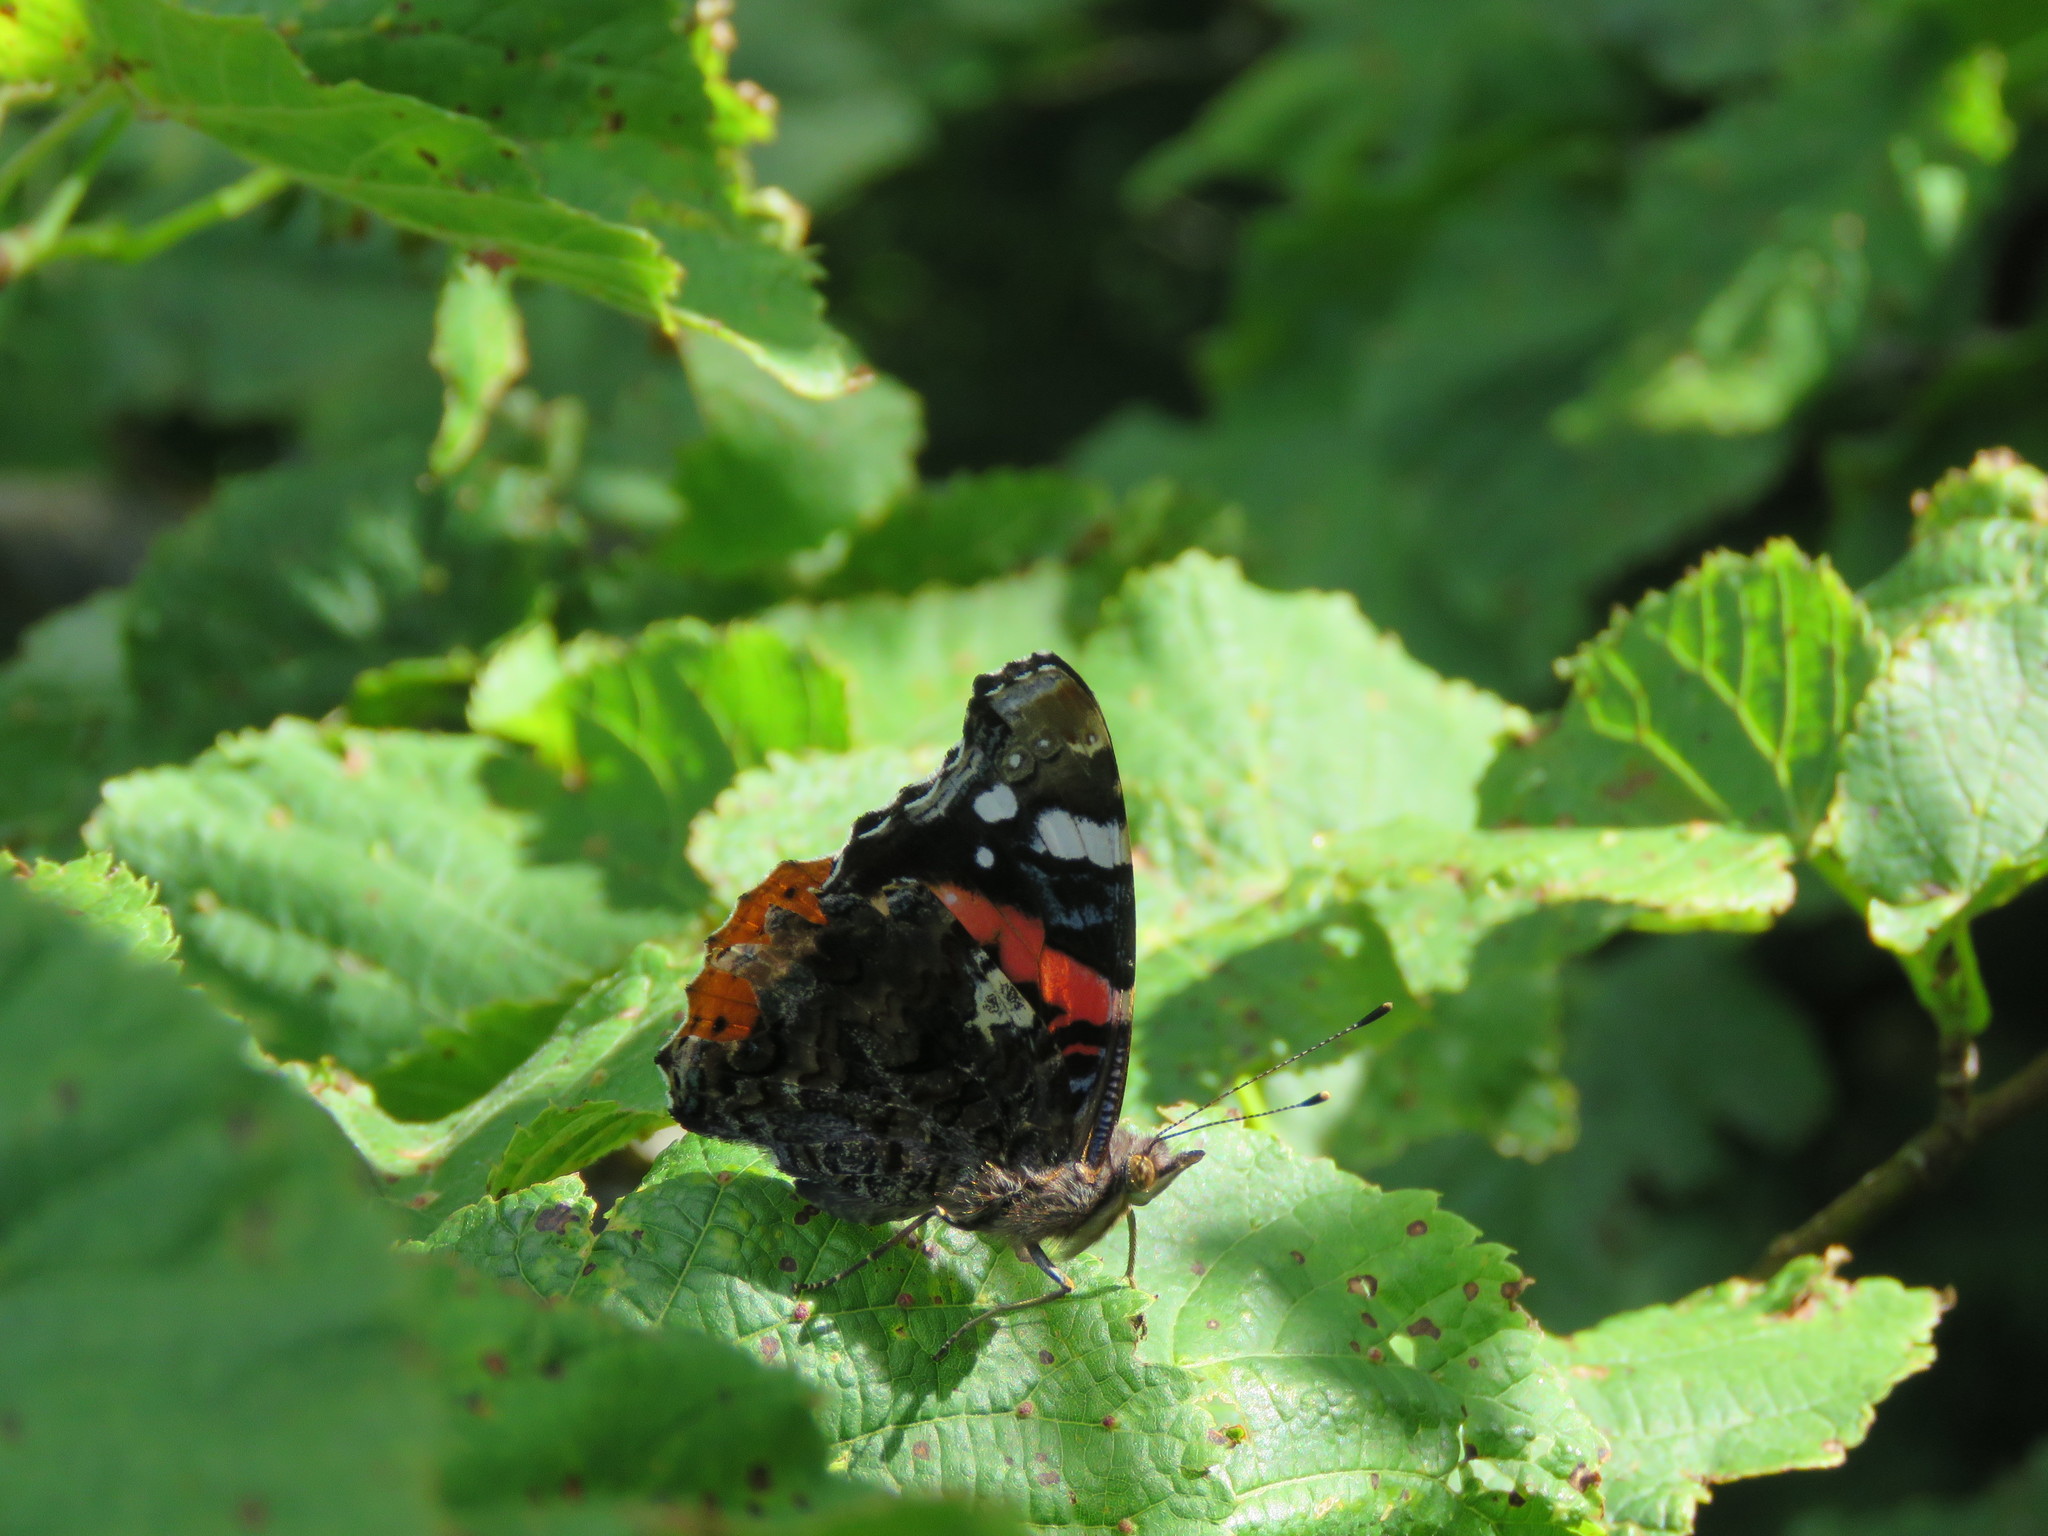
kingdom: Animalia
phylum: Arthropoda
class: Insecta
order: Lepidoptera
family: Nymphalidae
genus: Vanessa
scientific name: Vanessa atalanta
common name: Red admiral
